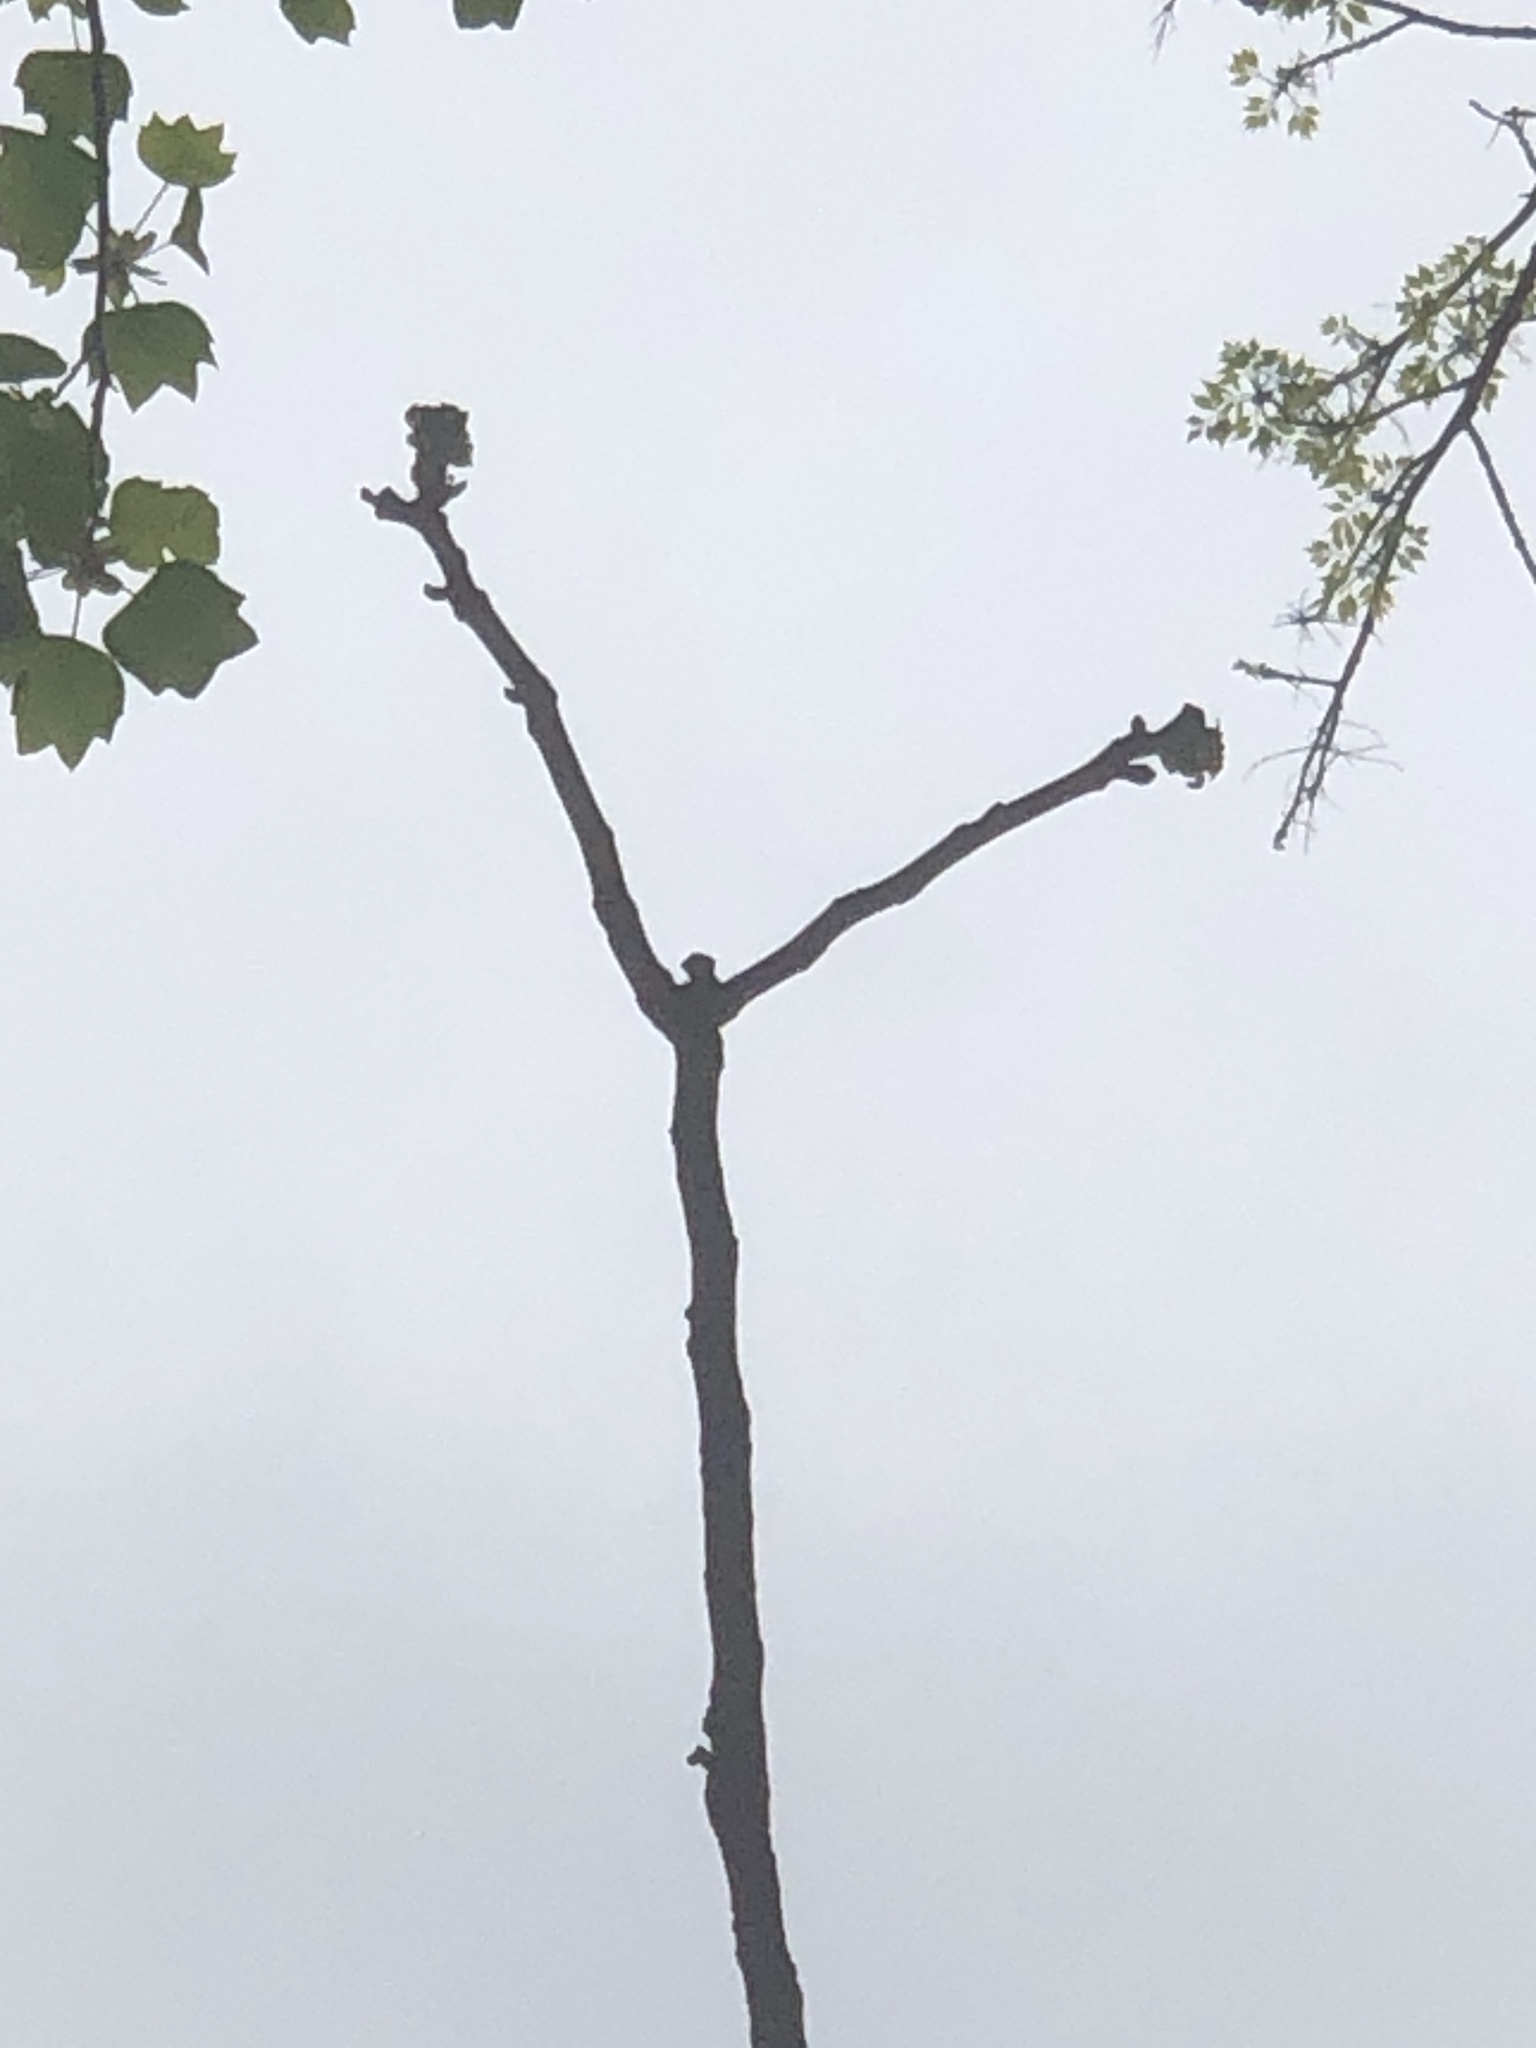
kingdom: Plantae
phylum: Tracheophyta
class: Magnoliopsida
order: Fabales
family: Fabaceae
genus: Gymnocladus
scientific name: Gymnocladus dioicus
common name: Kentucky coffee-tree
